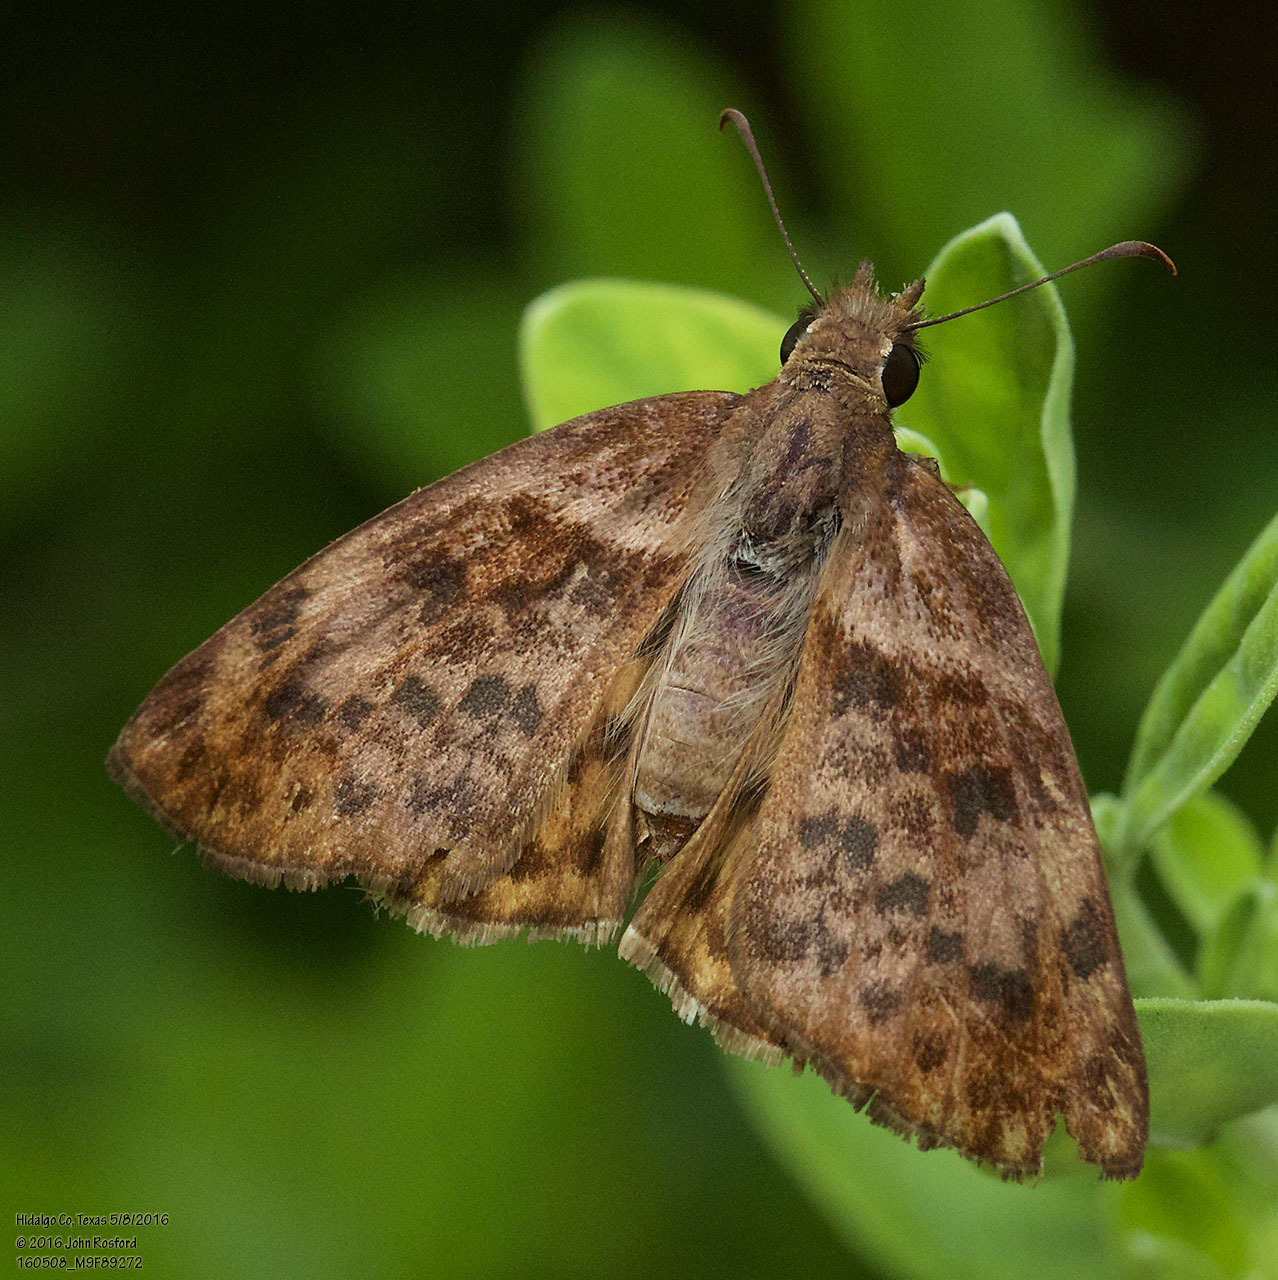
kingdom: Animalia
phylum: Arthropoda
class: Insecta
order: Lepidoptera
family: Hesperiidae
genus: Timochares
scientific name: Timochares ruptifasciata
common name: Brown-banded skipper
